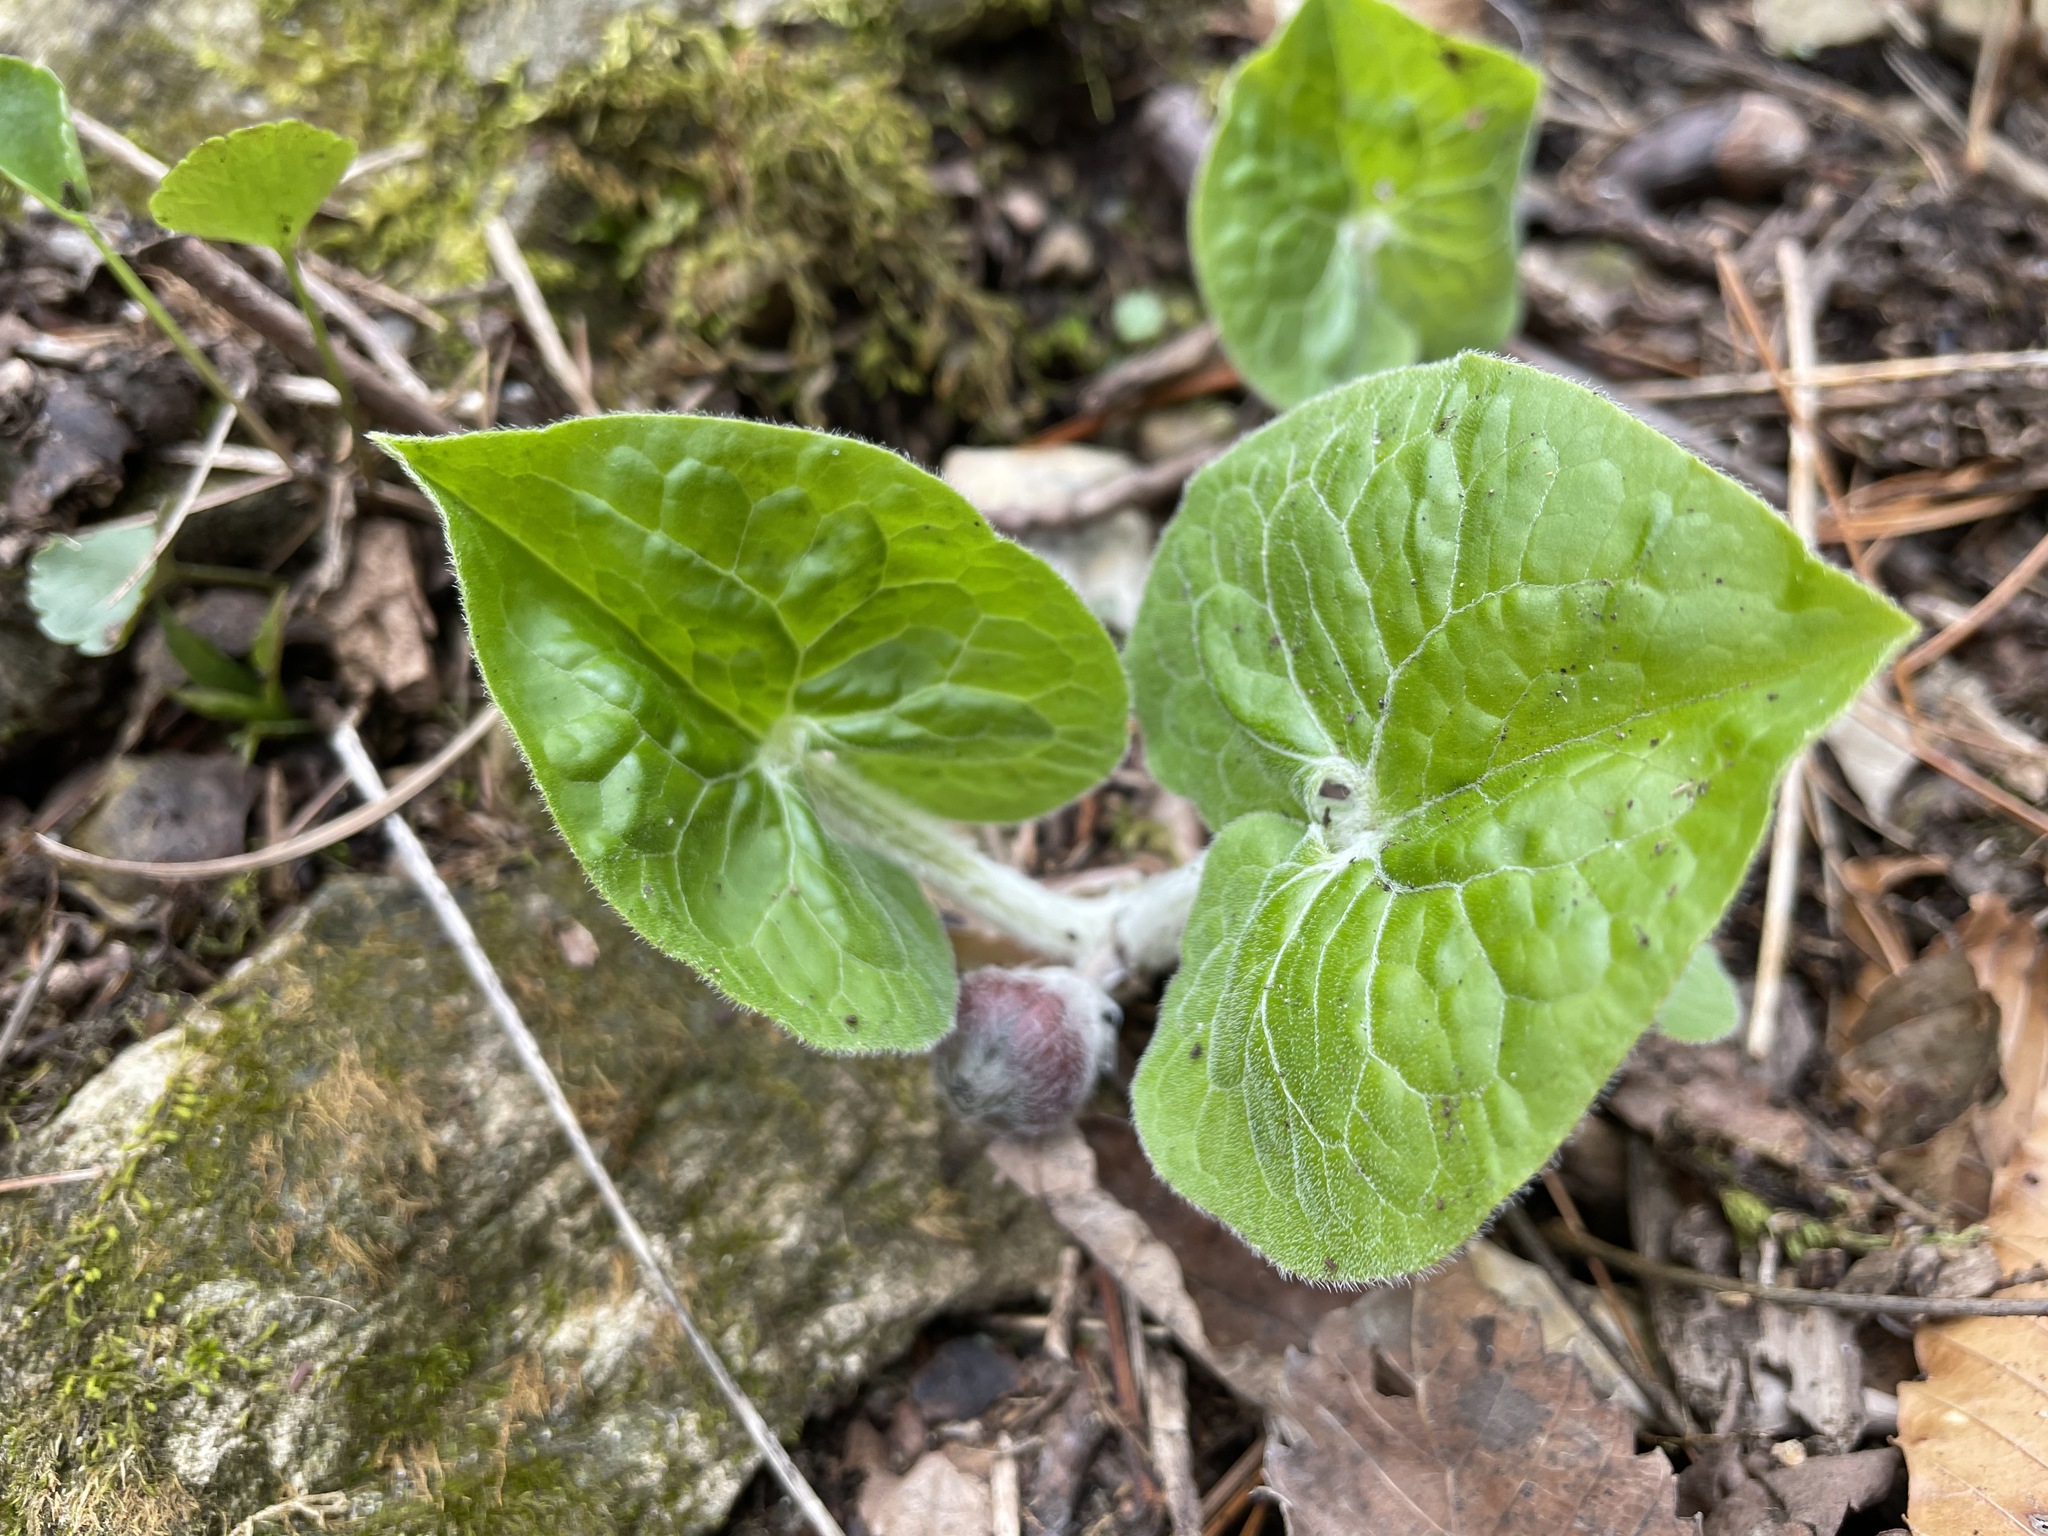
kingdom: Plantae
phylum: Tracheophyta
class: Magnoliopsida
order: Piperales
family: Aristolochiaceae
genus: Asarum
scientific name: Asarum canadense
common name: Wild ginger
